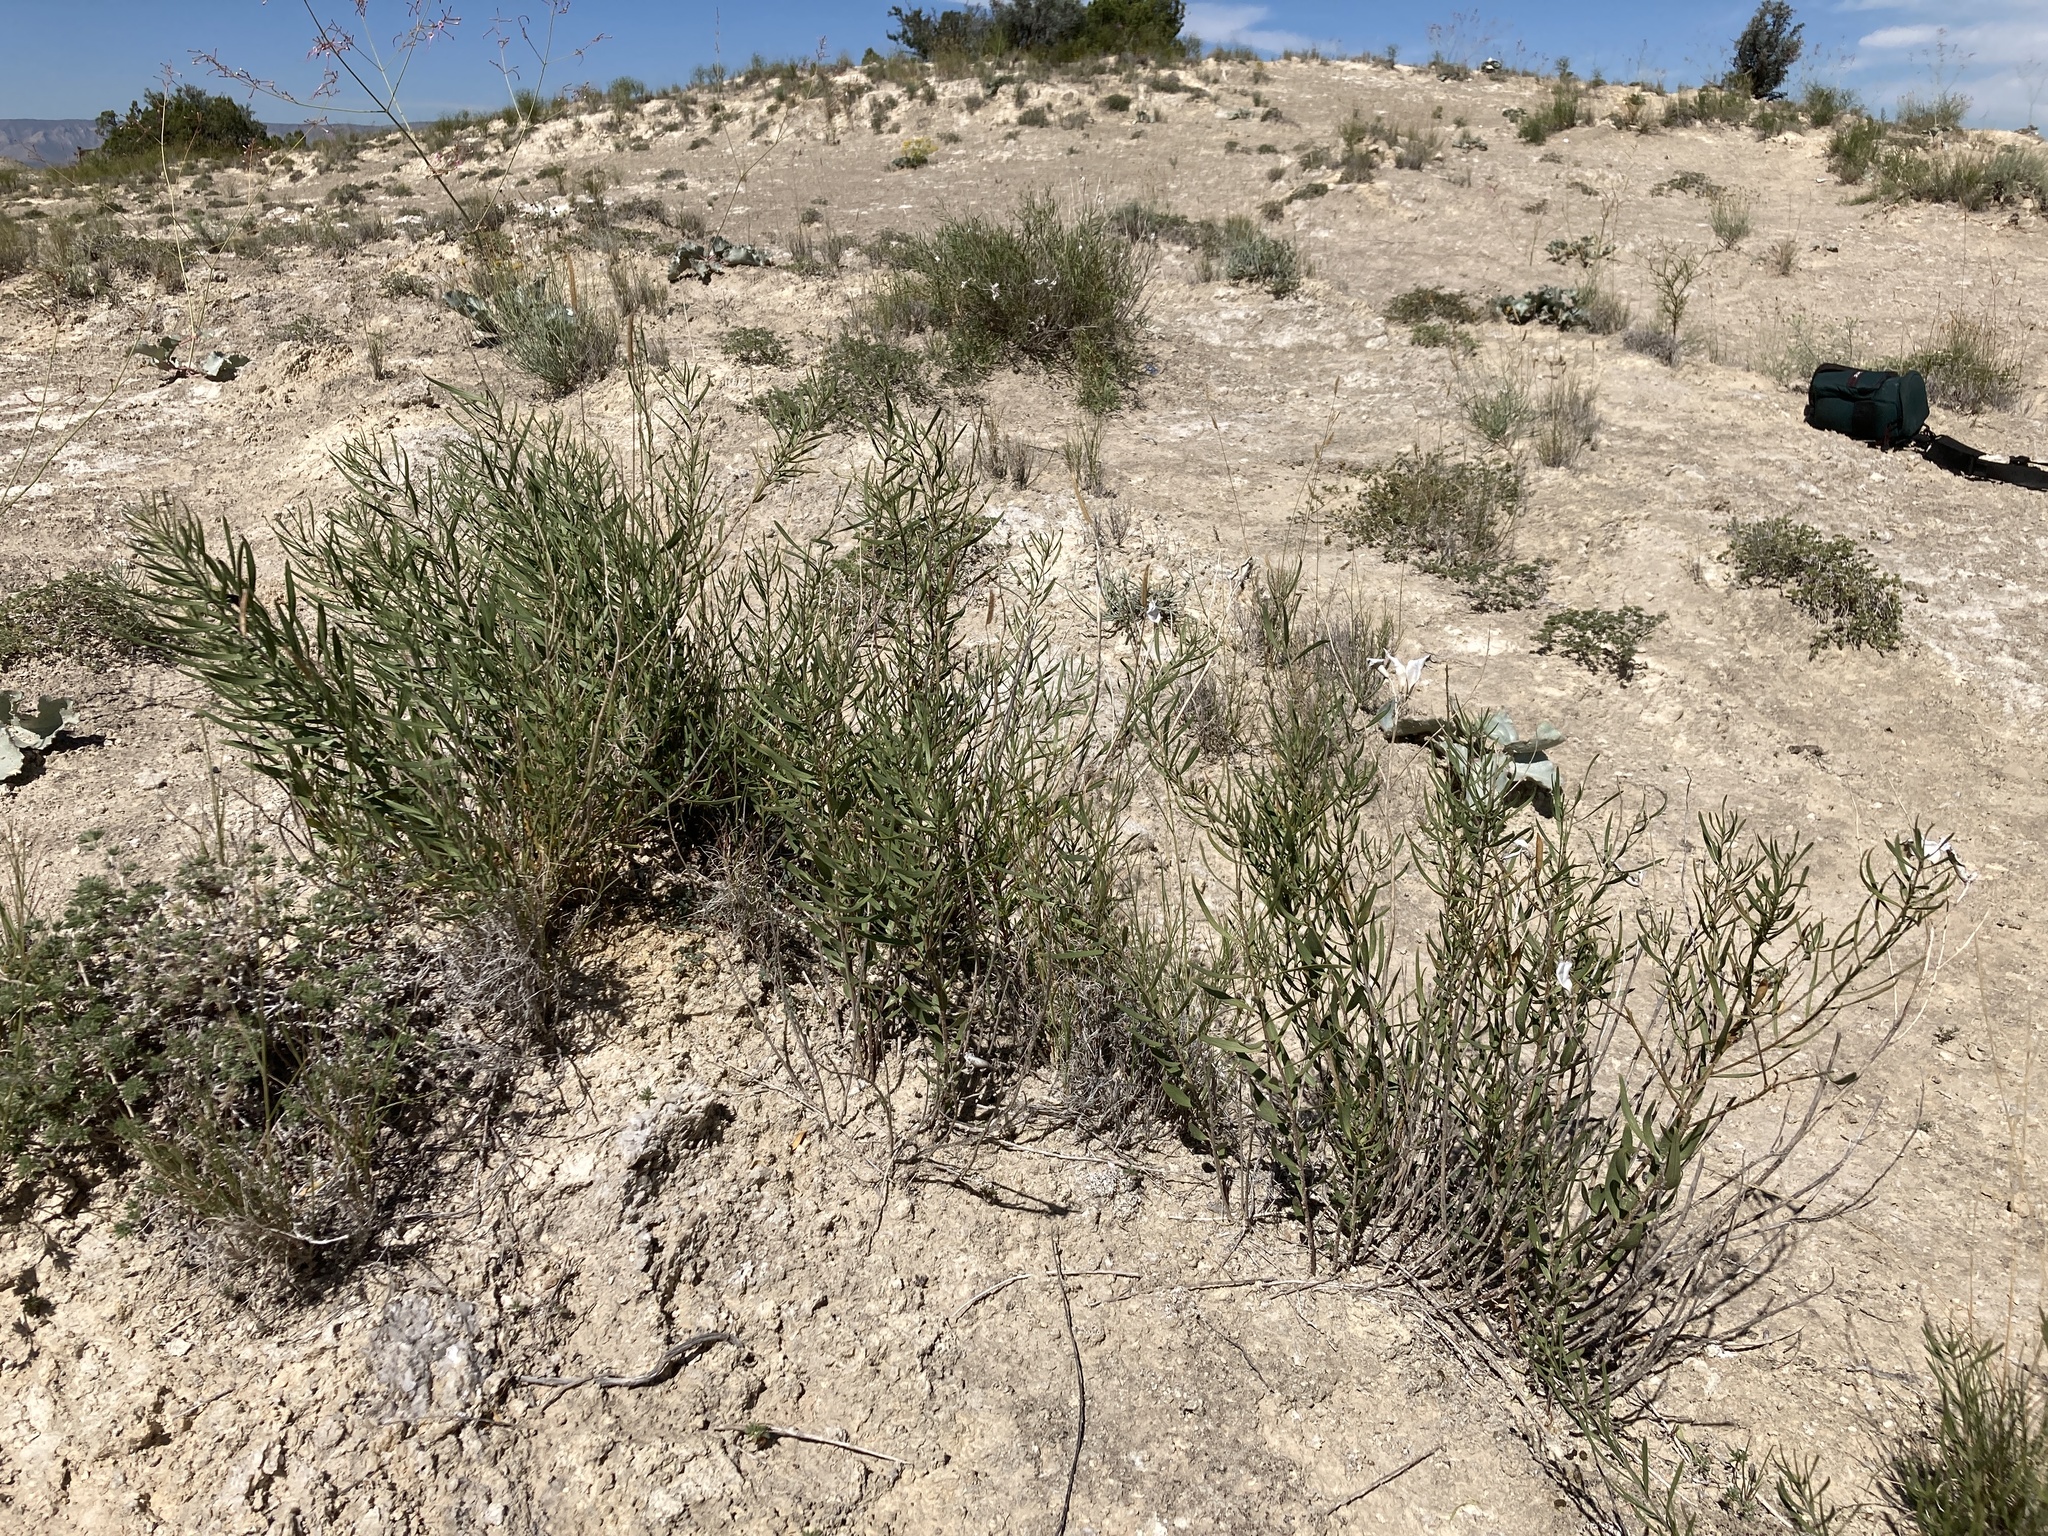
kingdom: Plantae
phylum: Tracheophyta
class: Magnoliopsida
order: Gentianales
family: Apocynaceae
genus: Amsonia
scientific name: Amsonia tharpii
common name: Feltleaf bluestar
